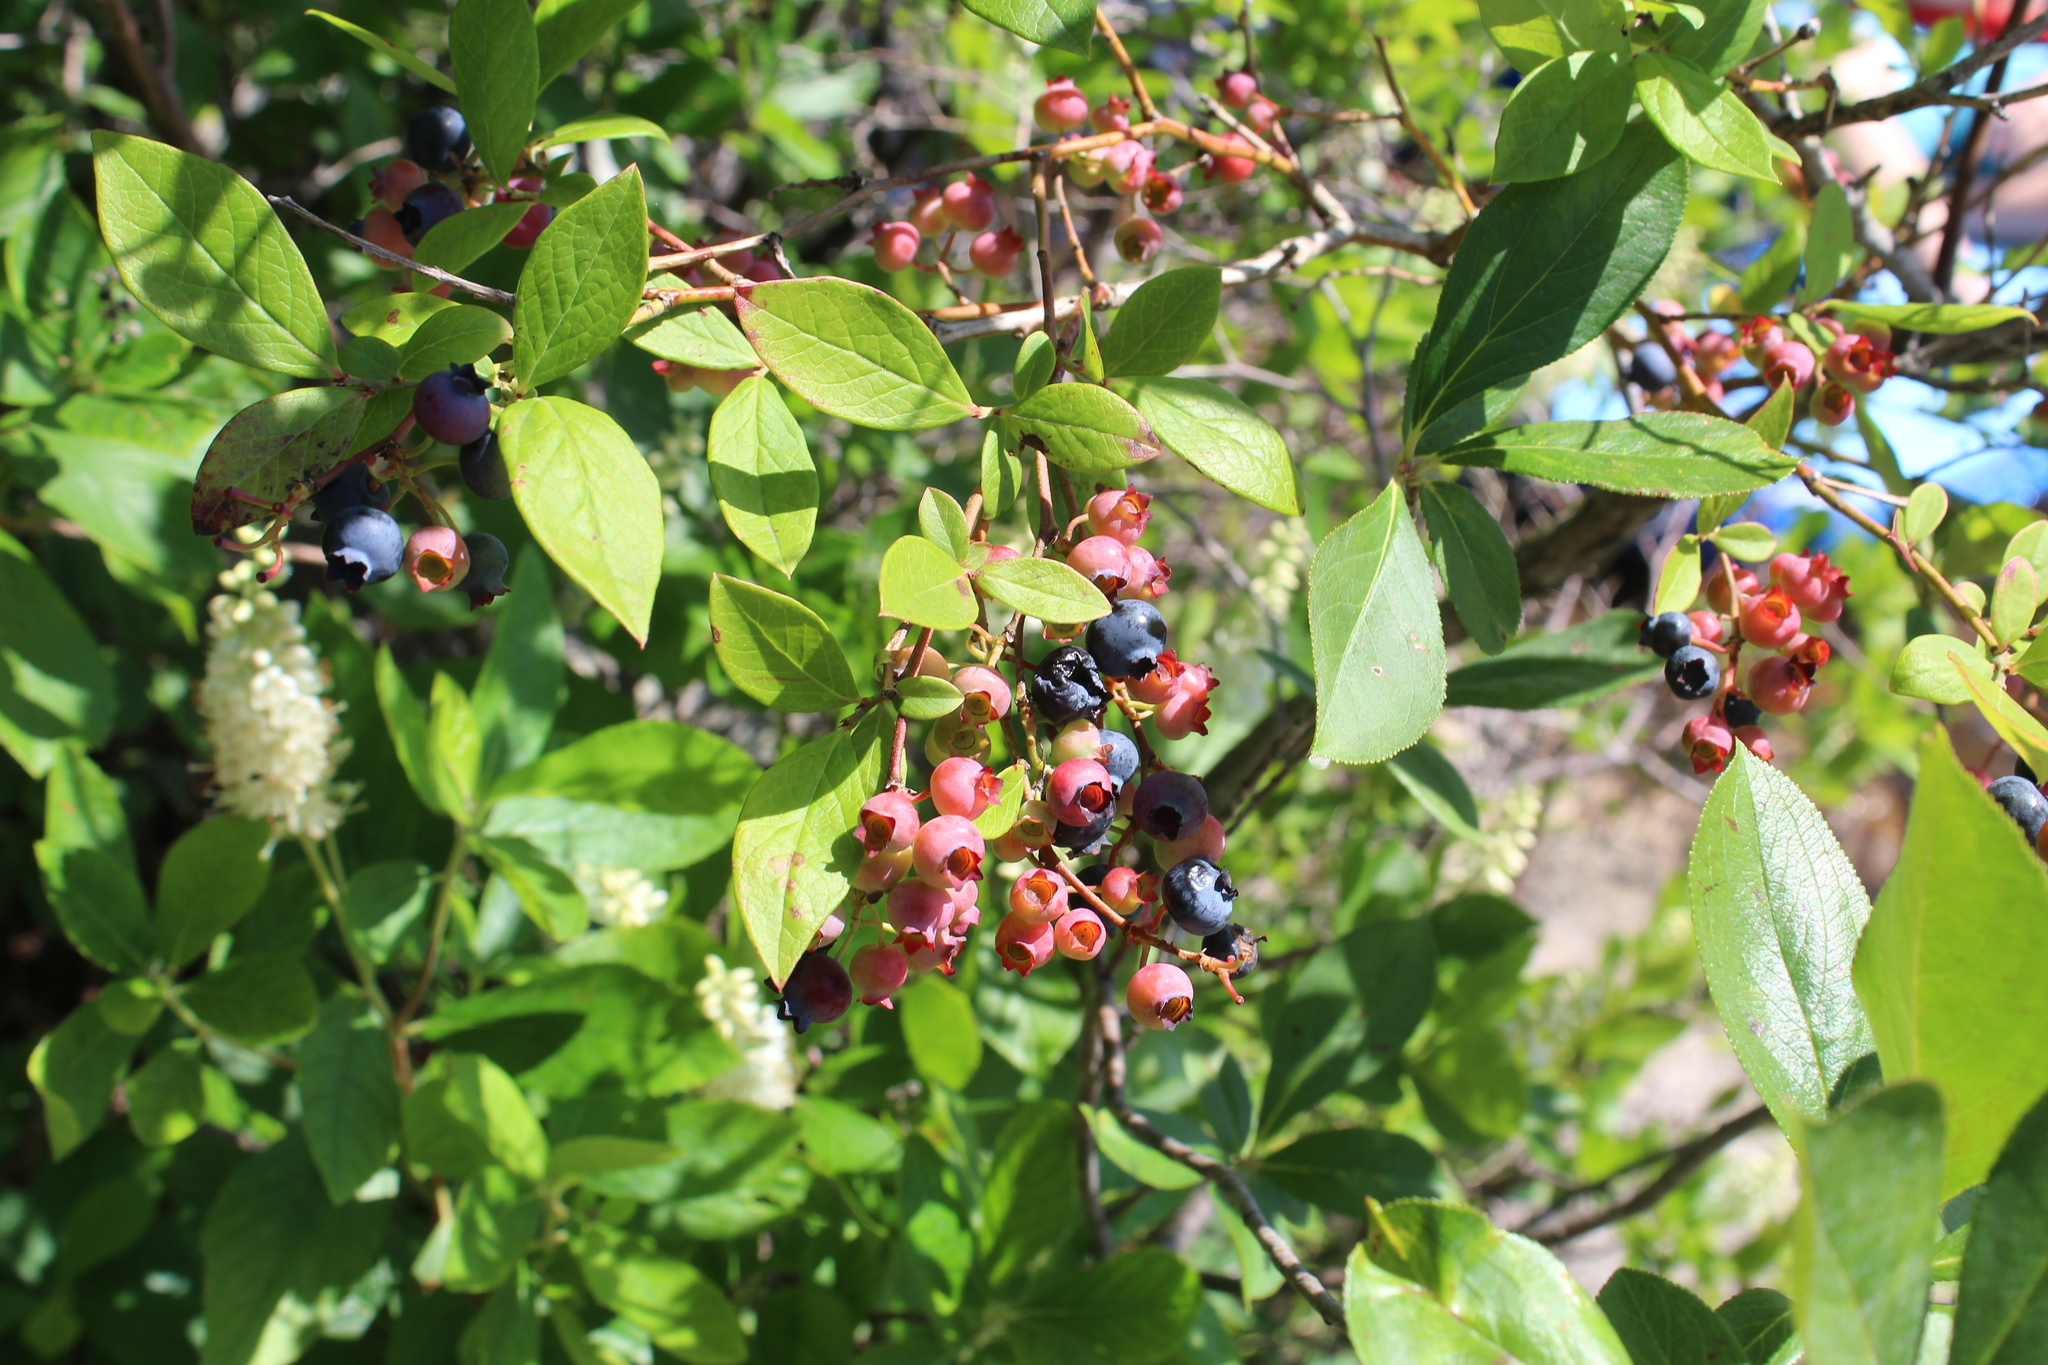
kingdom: Plantae
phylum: Tracheophyta
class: Magnoliopsida
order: Ericales
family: Ericaceae
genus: Vaccinium
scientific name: Vaccinium corymbosum
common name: Blueberry
